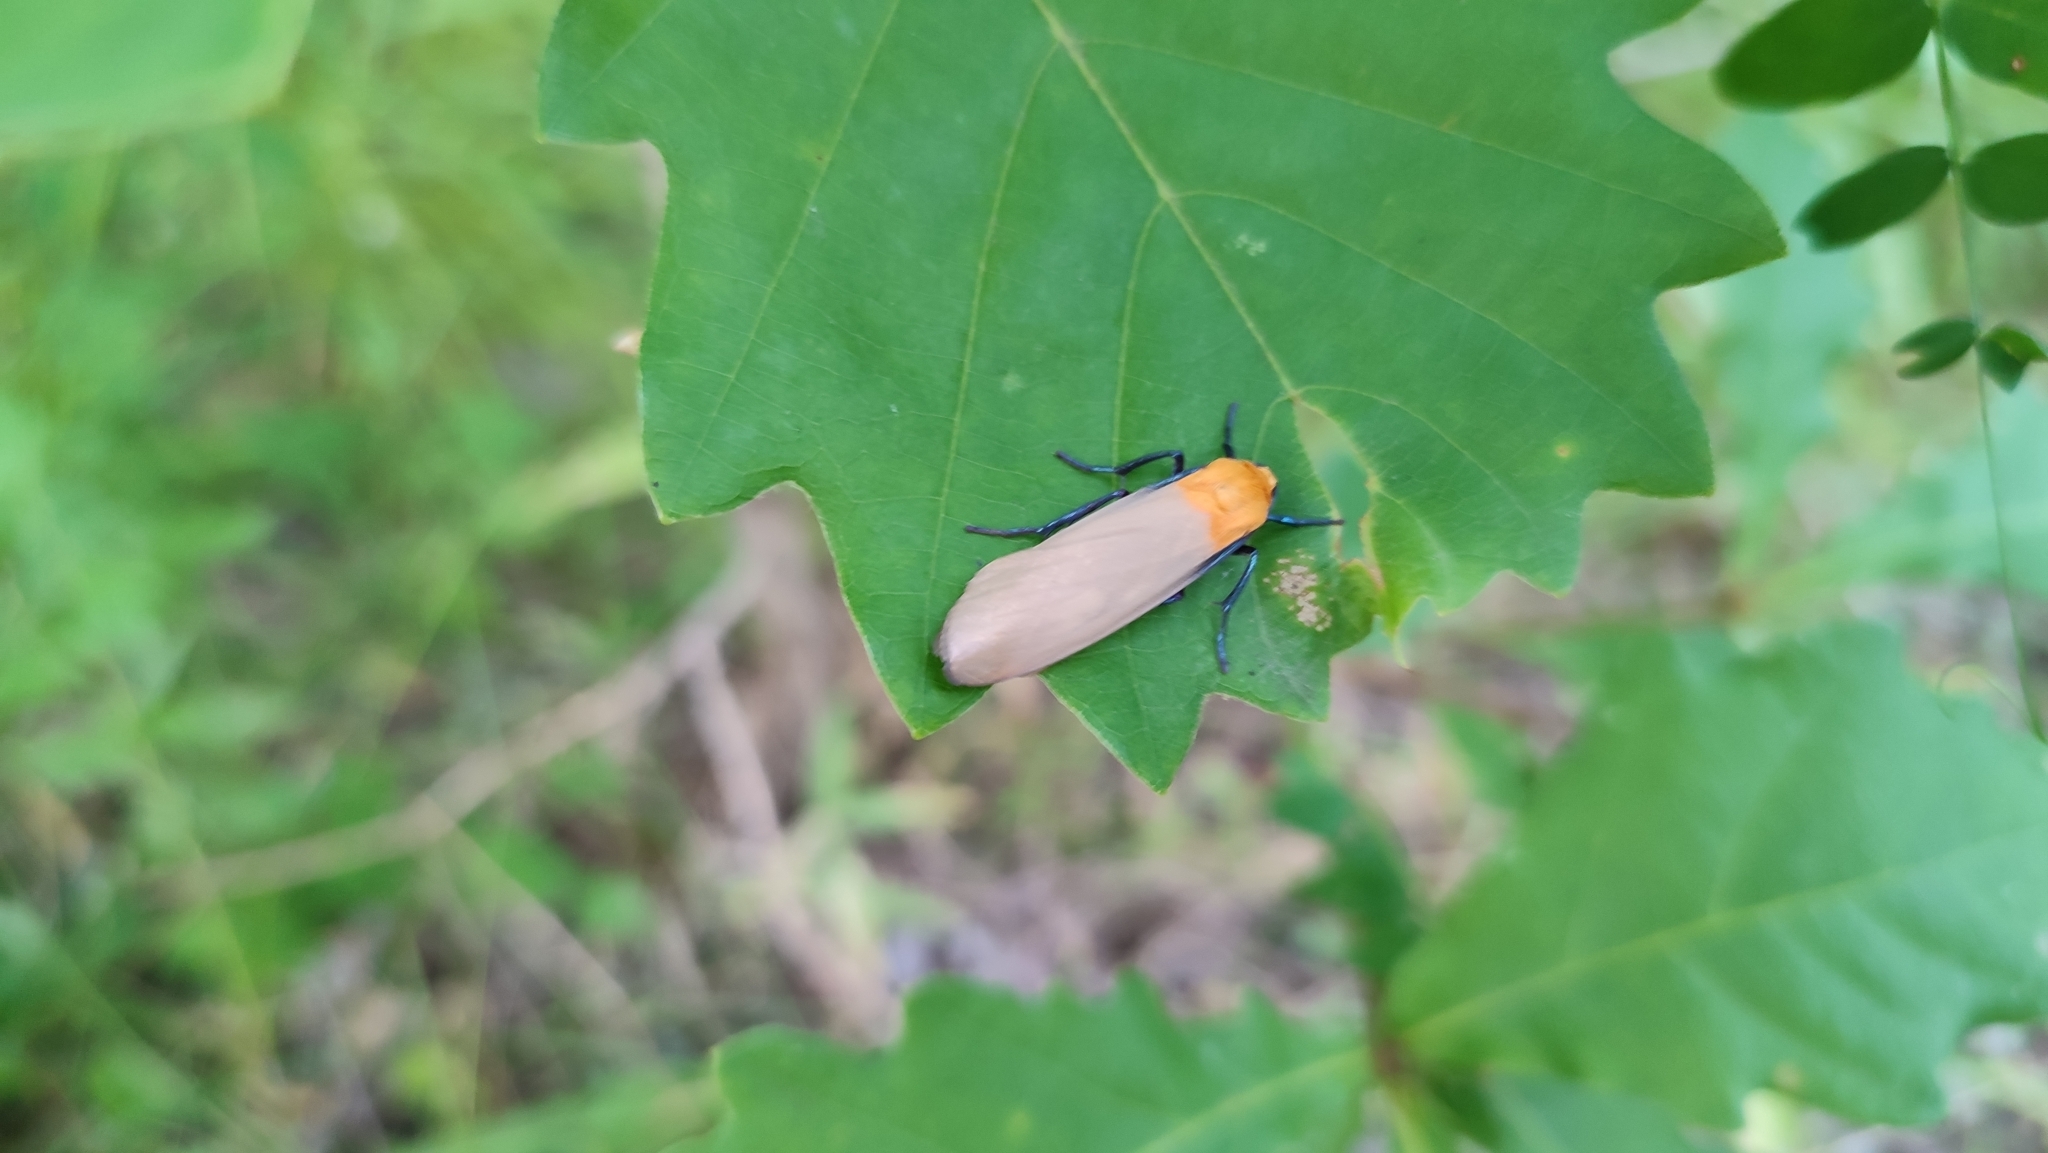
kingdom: Animalia
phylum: Arthropoda
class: Insecta
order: Lepidoptera
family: Erebidae
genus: Lithosia
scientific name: Lithosia quadra
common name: Four-spotted footman
